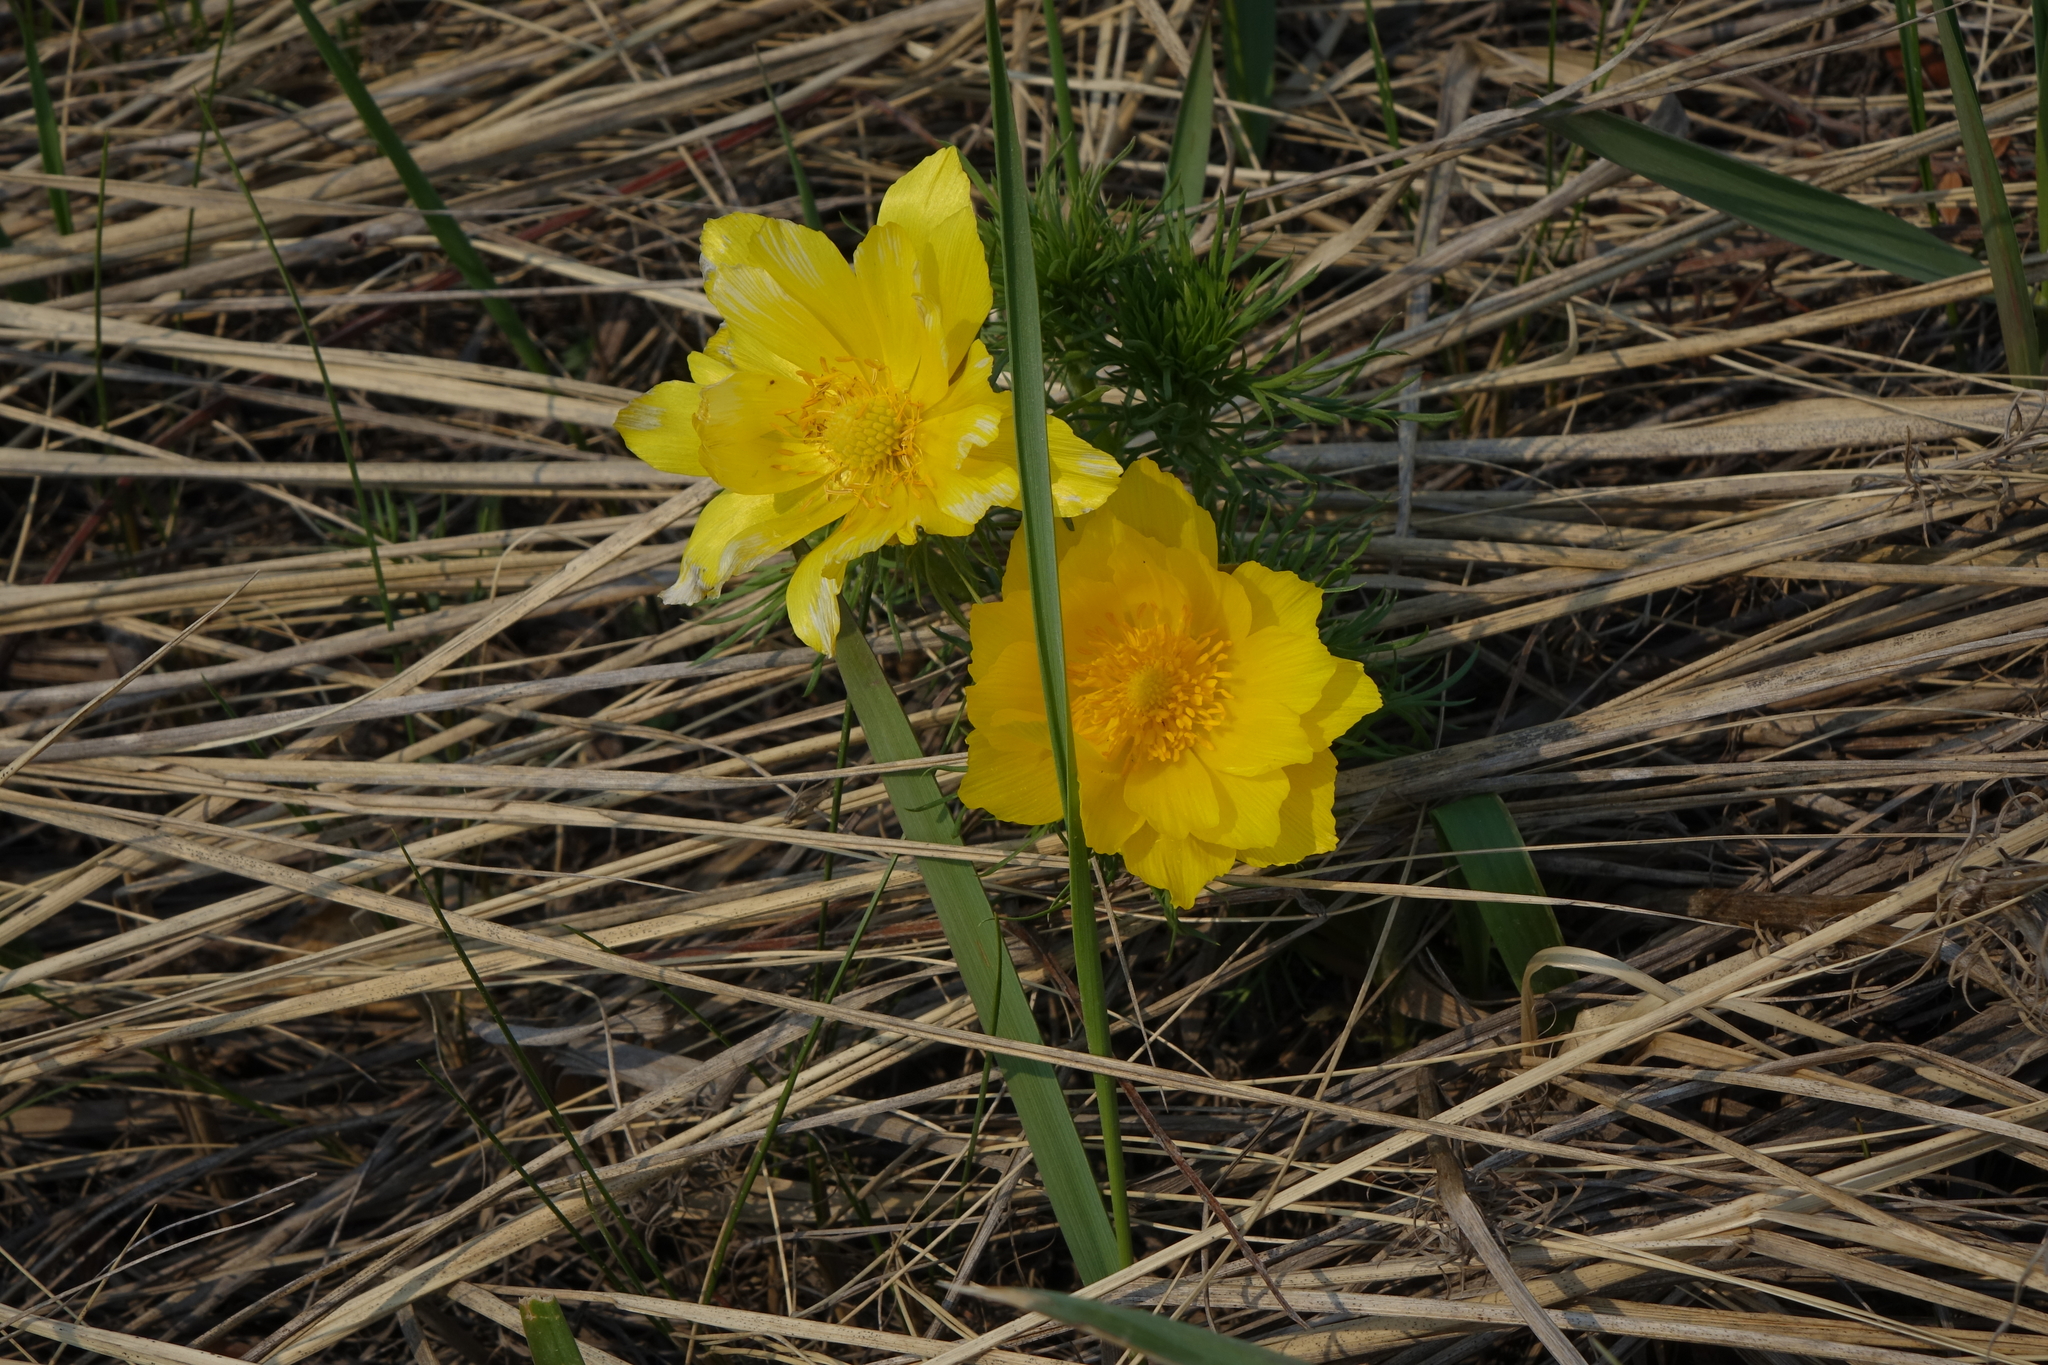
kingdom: Plantae
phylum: Tracheophyta
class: Magnoliopsida
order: Ranunculales
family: Ranunculaceae
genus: Adonis
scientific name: Adonis vernalis
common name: Yellow pheasants-eye
